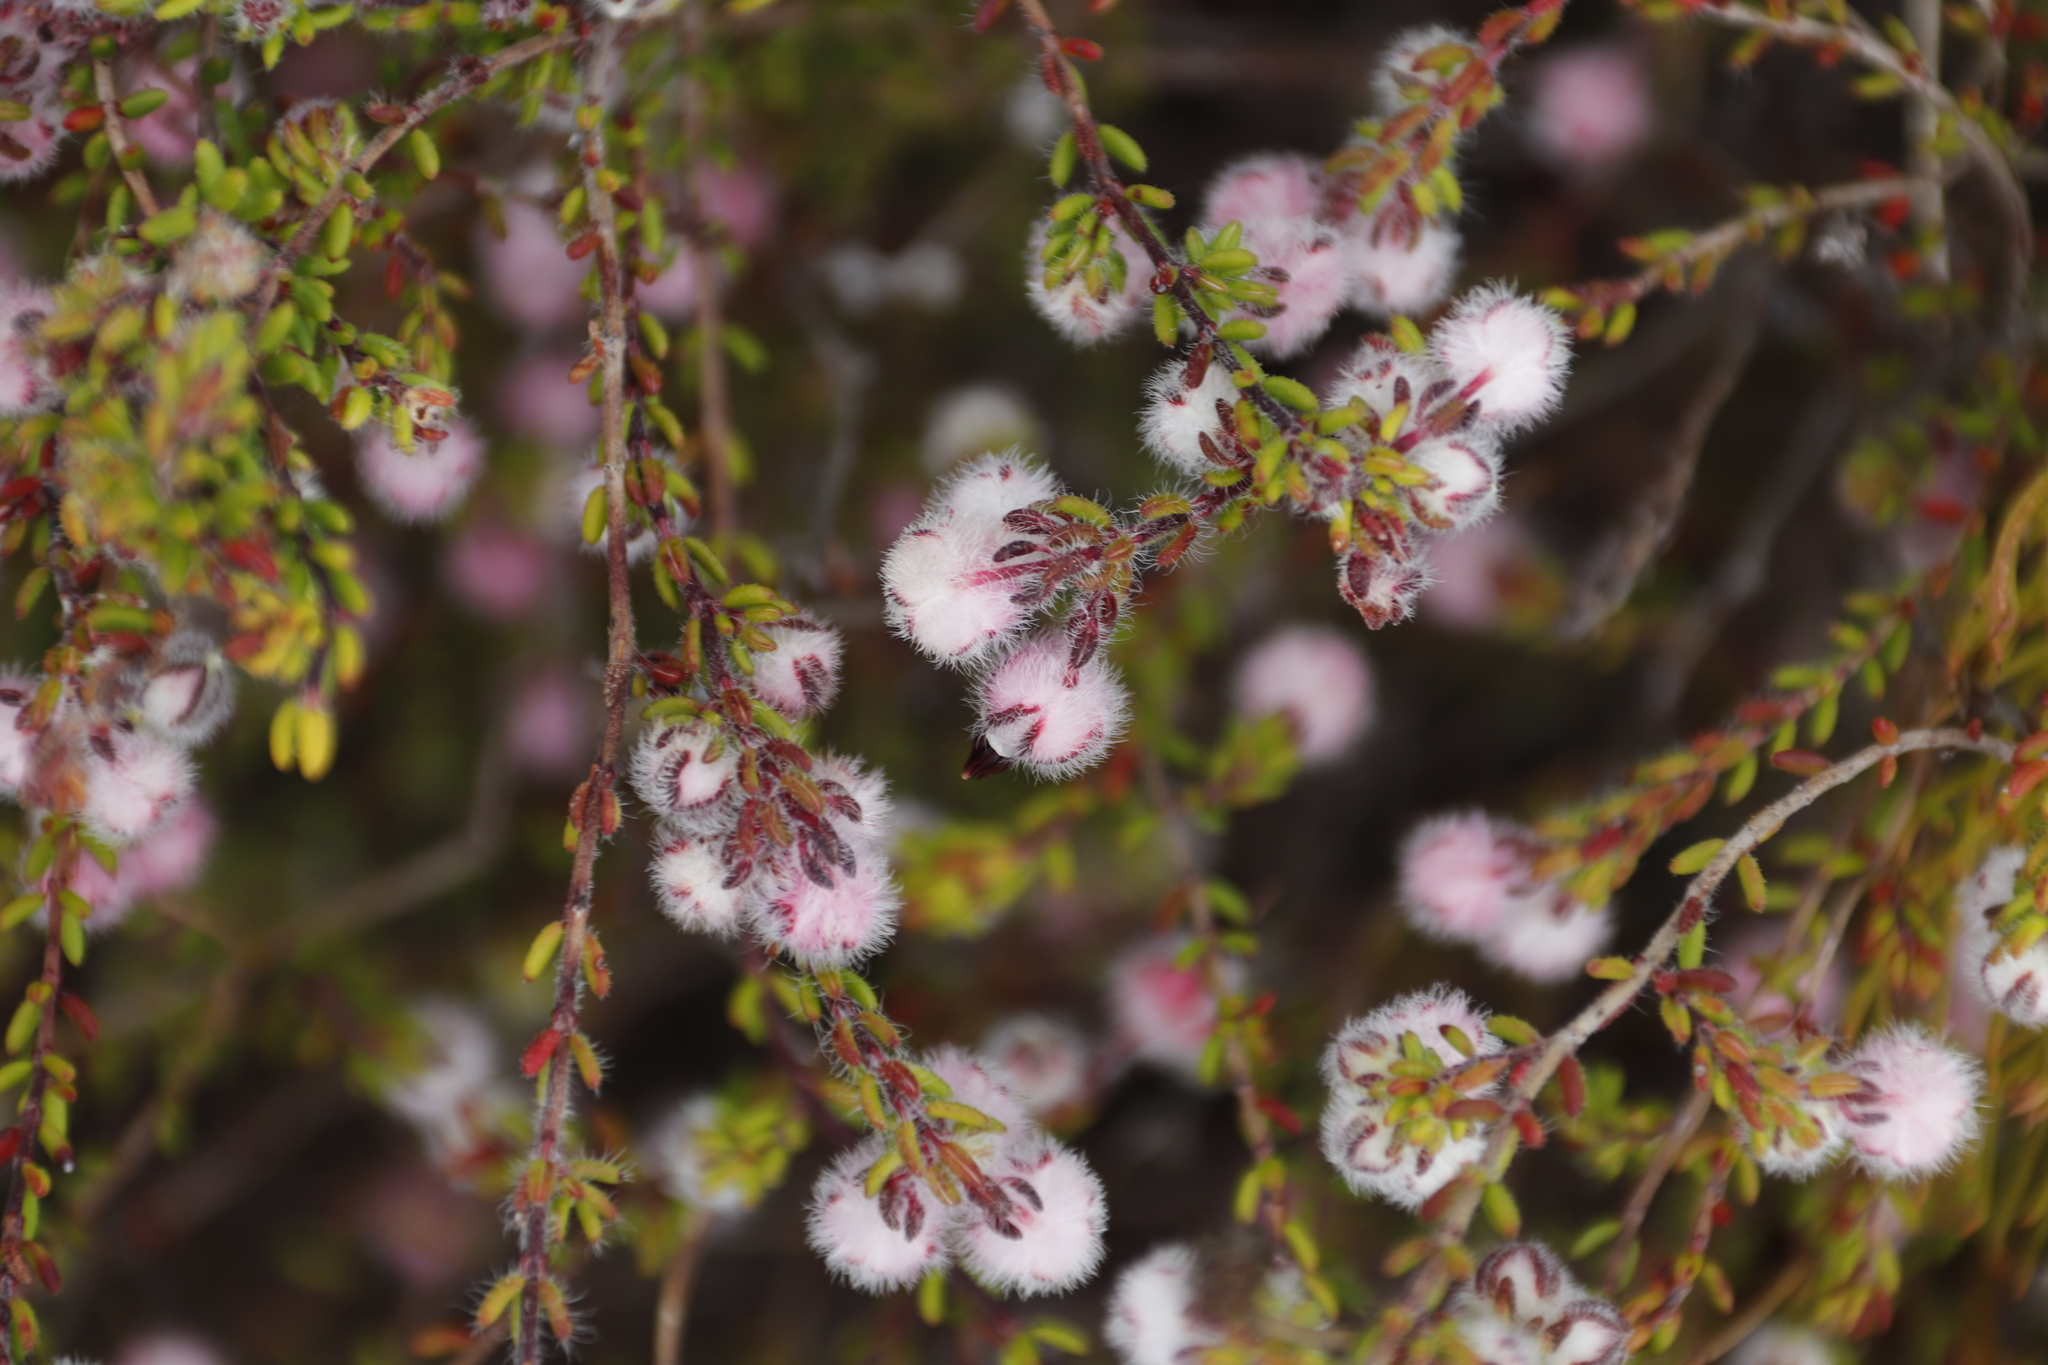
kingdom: Plantae
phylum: Tracheophyta
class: Magnoliopsida
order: Ericales
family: Ericaceae
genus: Erica
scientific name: Erica bruniades
